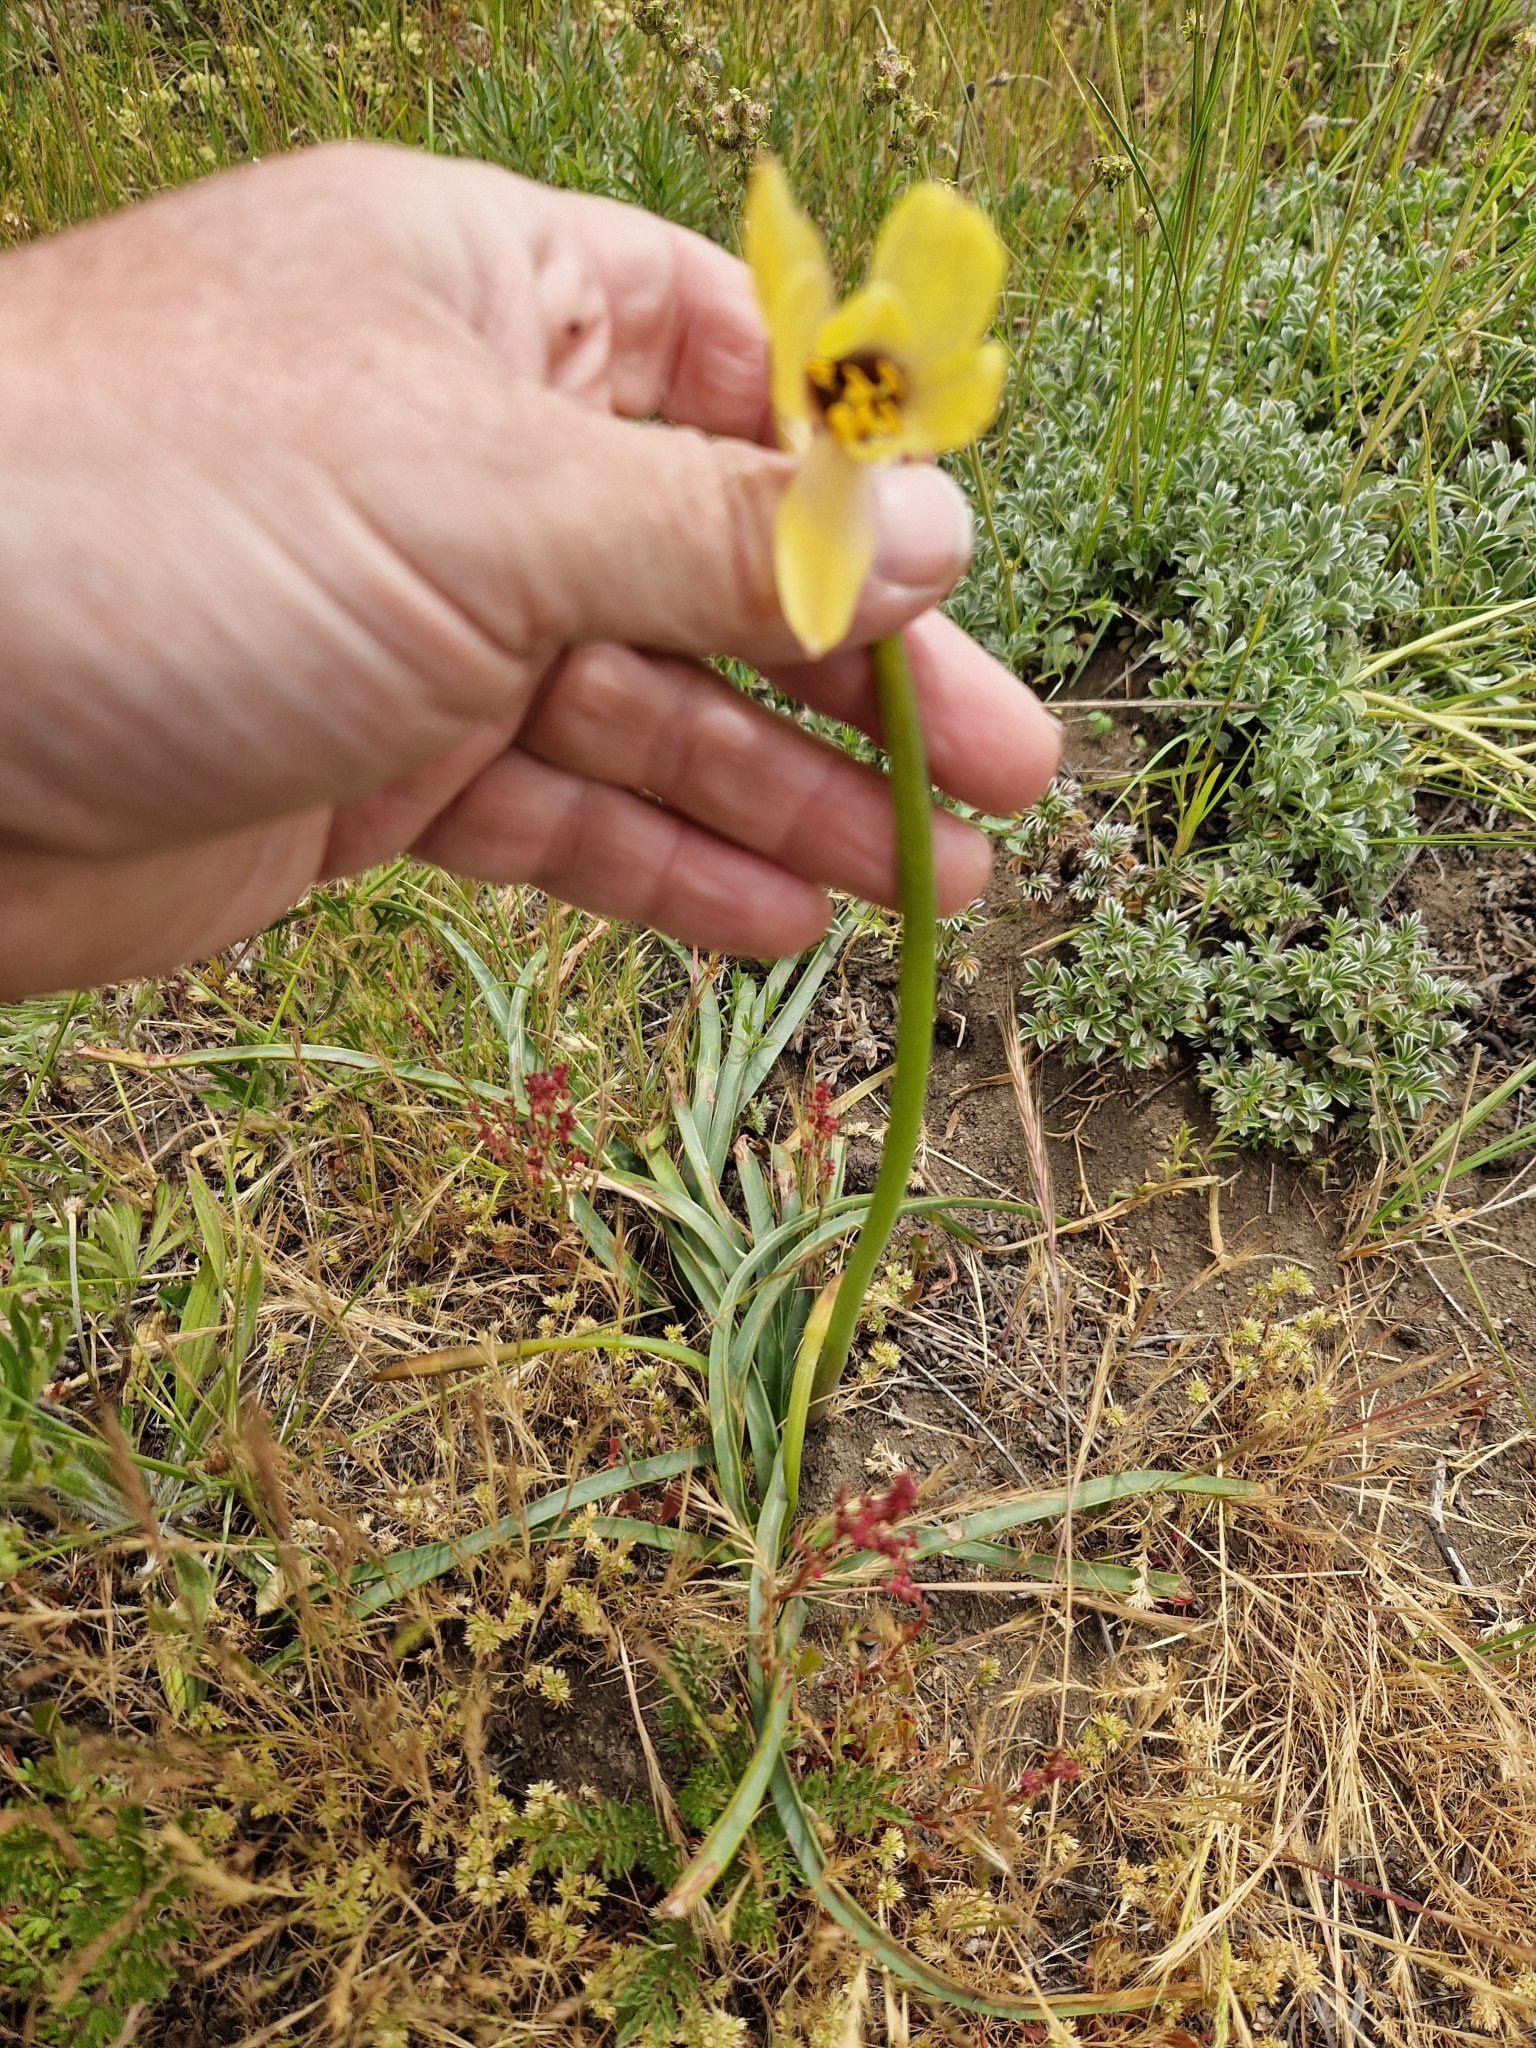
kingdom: Plantae
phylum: Tracheophyta
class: Liliopsida
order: Asparagales
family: Amaryllidaceae
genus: Zephyranthes
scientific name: Zephyranthes gilliesiana
